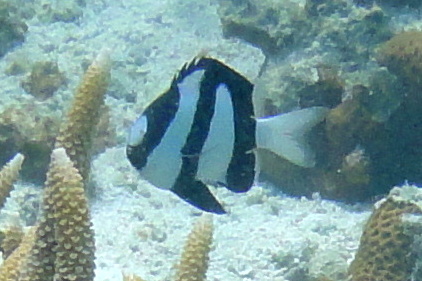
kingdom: Animalia
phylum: Chordata
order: Perciformes
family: Pomacentridae
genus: Dascyllus
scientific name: Dascyllus aruanus
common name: Humbug dascyllus
